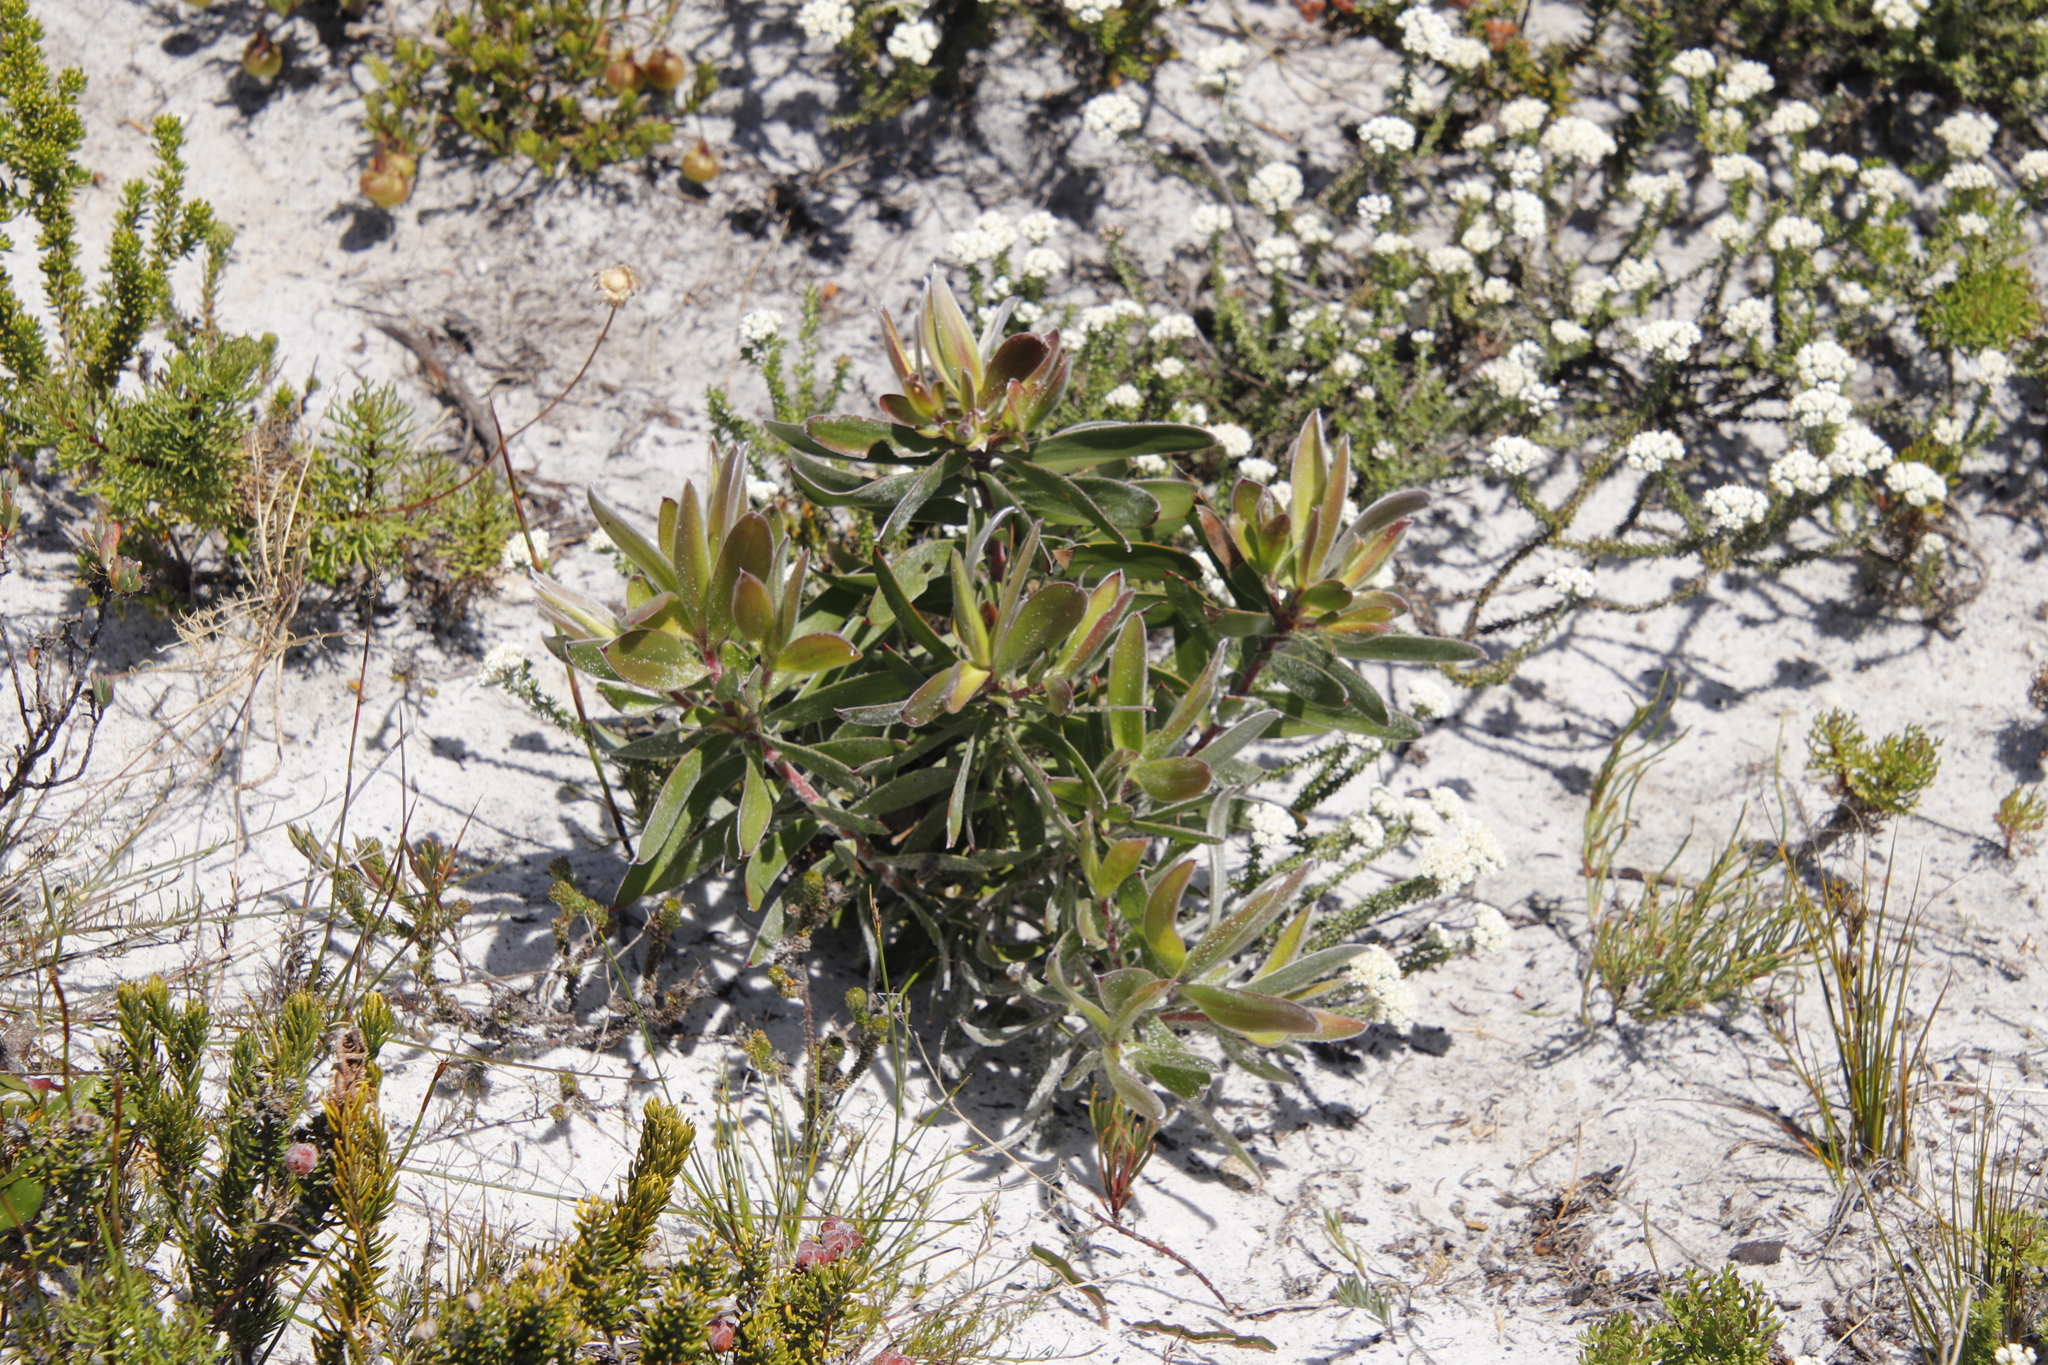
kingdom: Plantae
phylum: Tracheophyta
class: Magnoliopsida
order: Proteales
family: Proteaceae
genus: Leucadendron
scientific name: Leucadendron laureolum
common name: Golden sunshinebush
